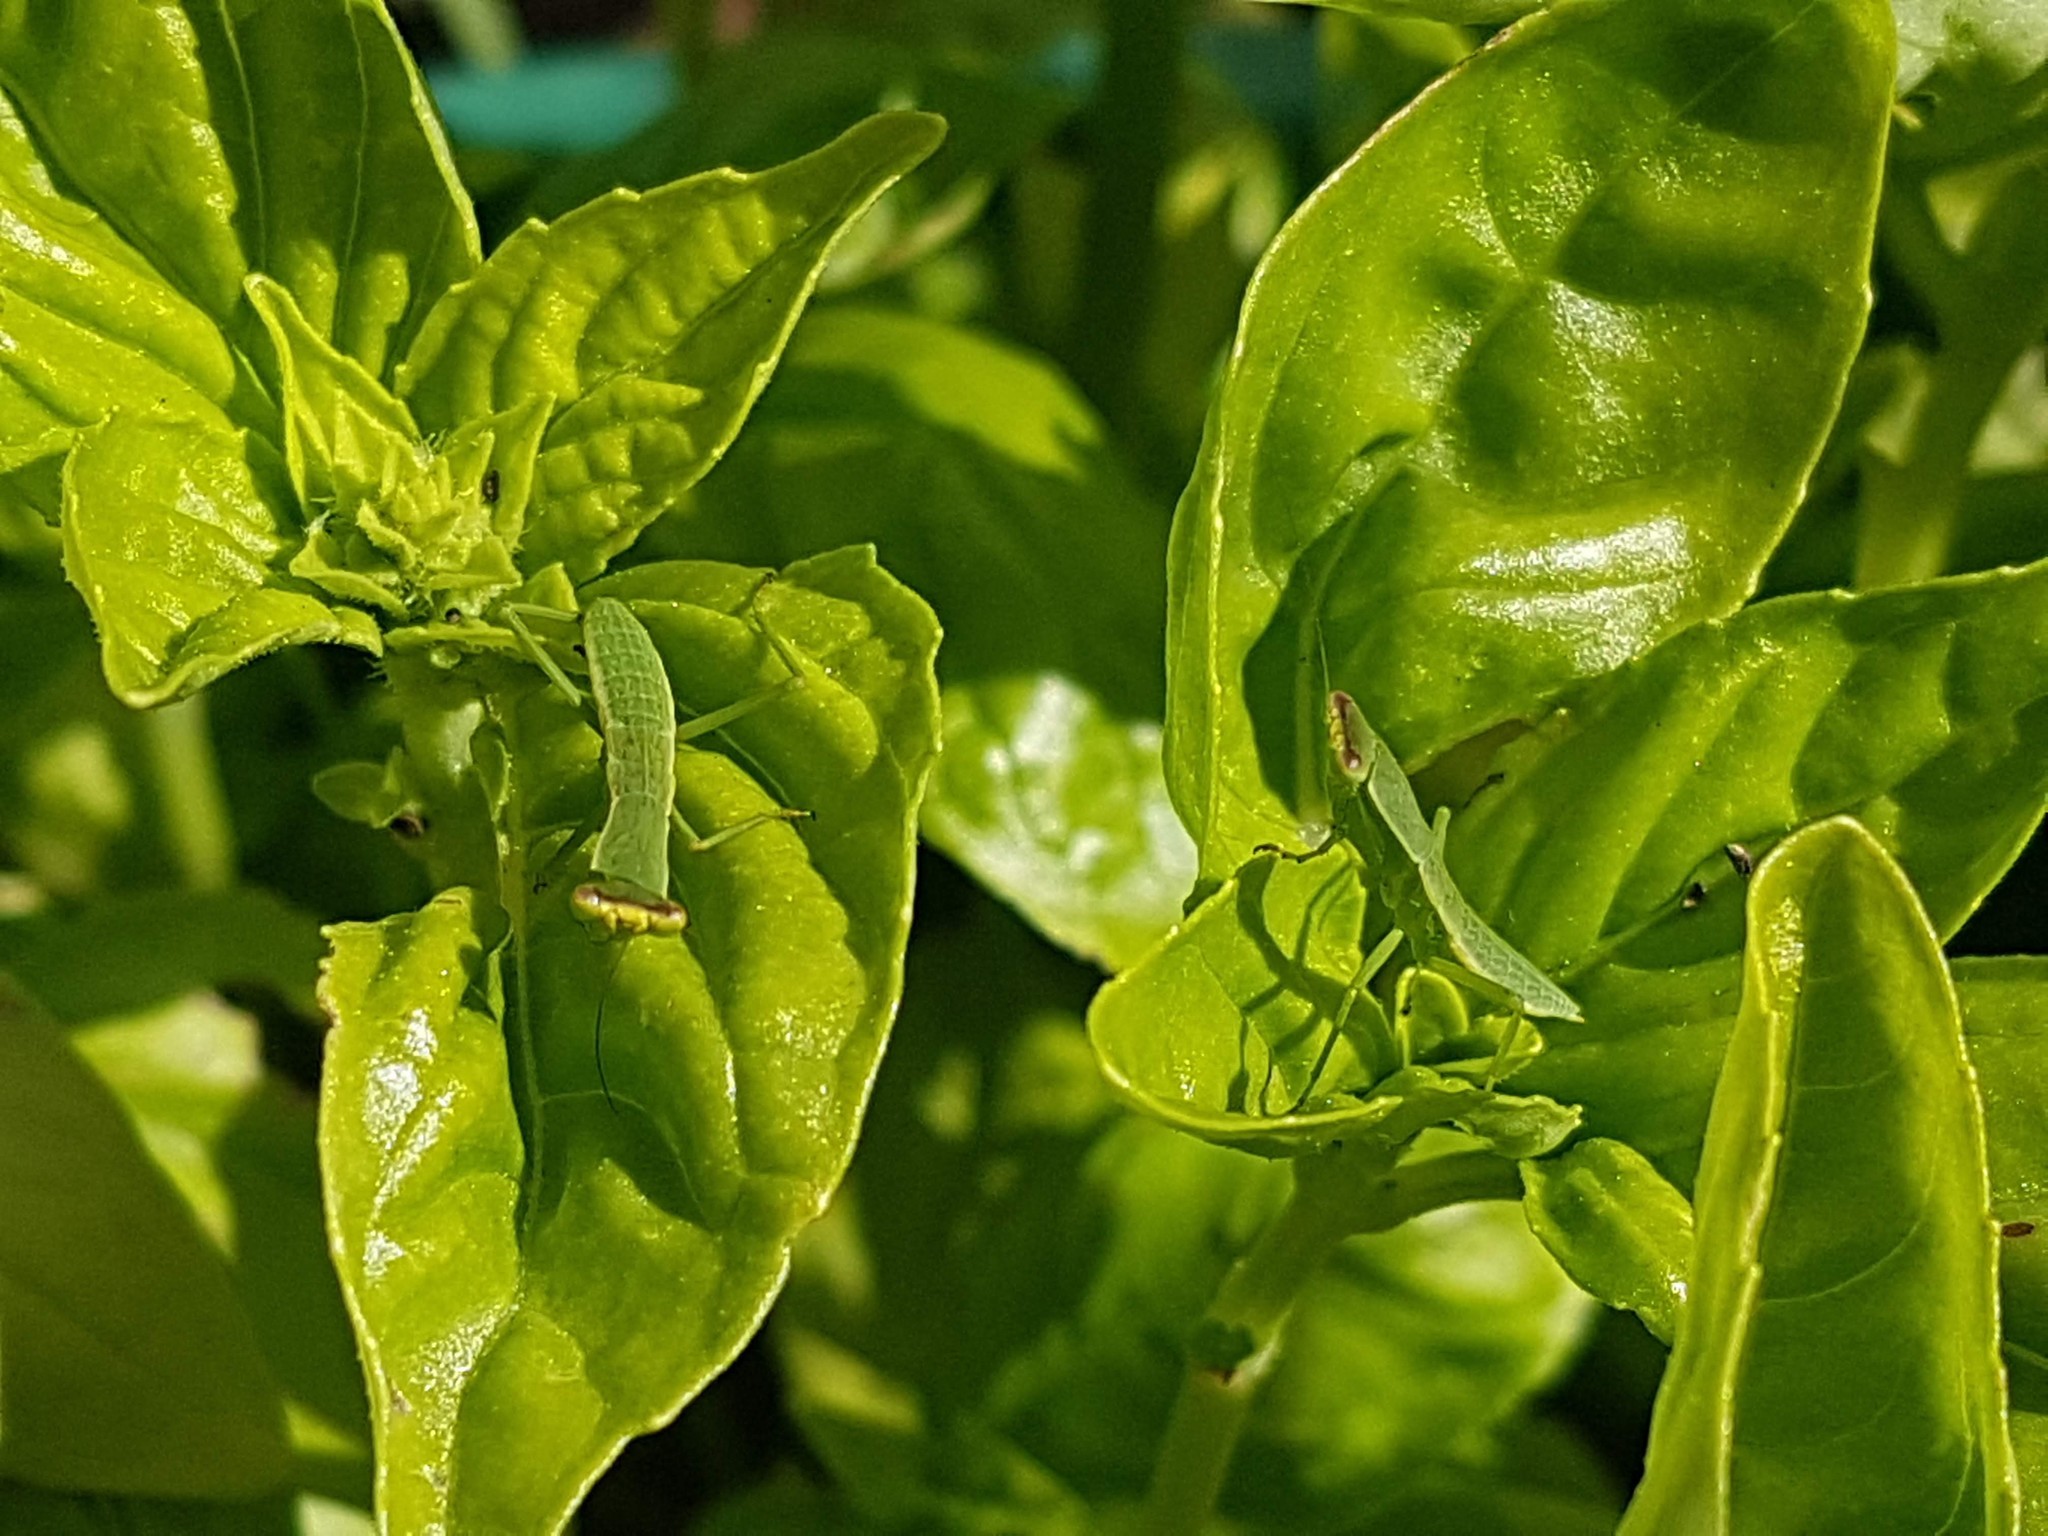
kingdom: Animalia
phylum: Arthropoda
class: Insecta
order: Mantodea
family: Mantidae
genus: Orthodera
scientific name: Orthodera novaezealandiae
